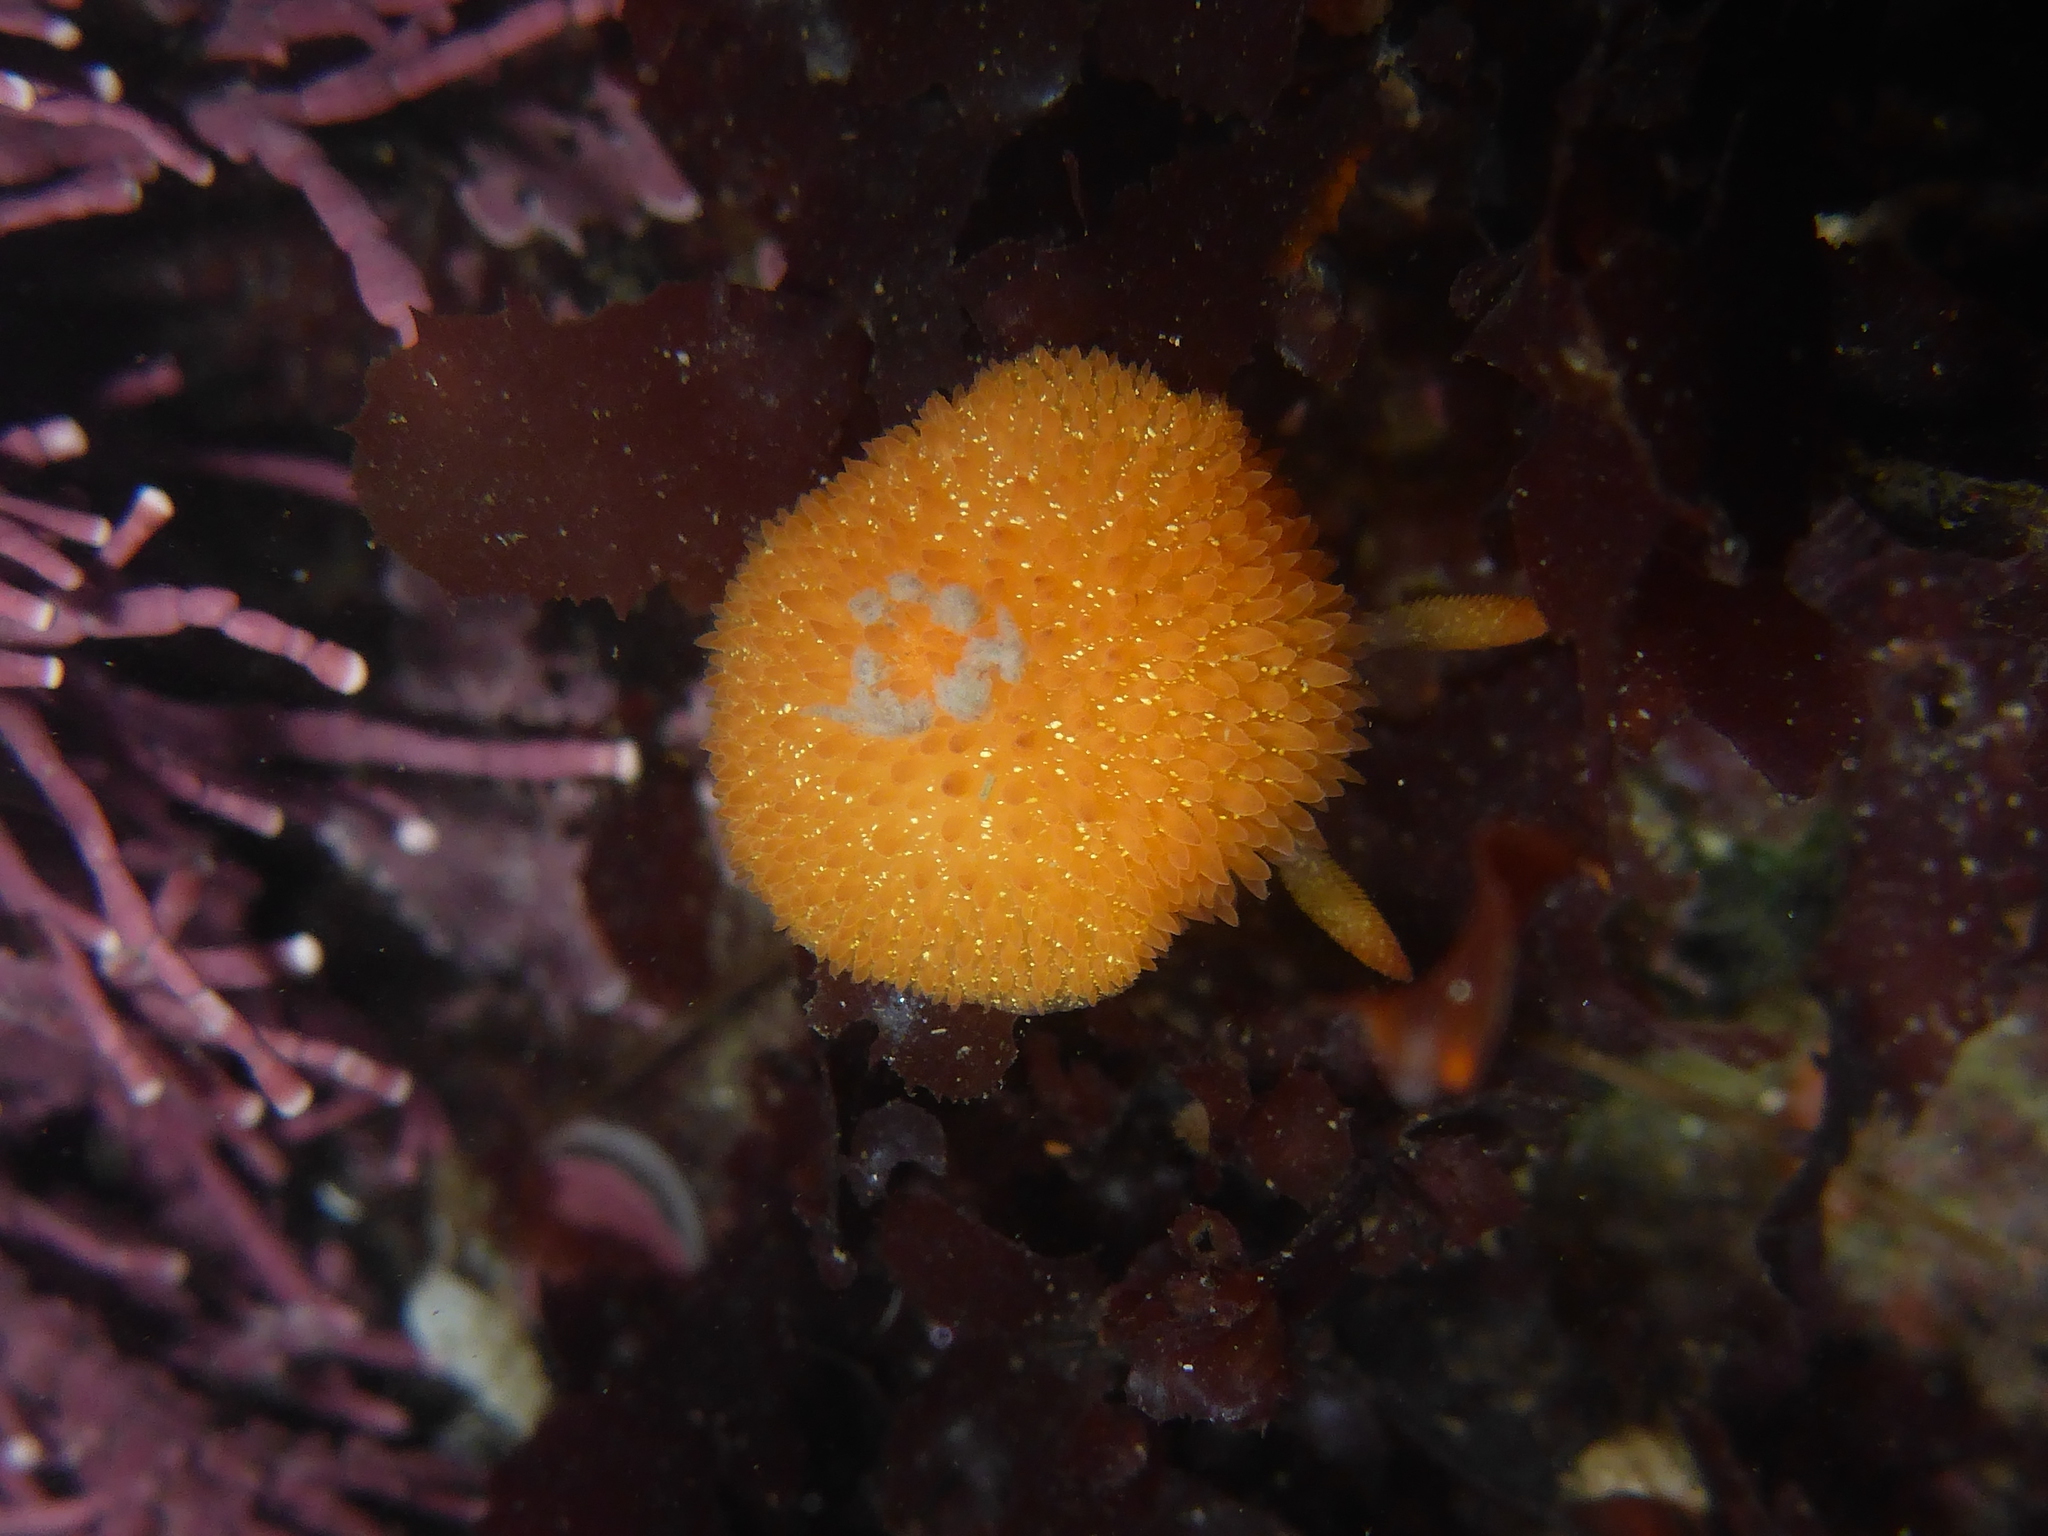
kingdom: Animalia
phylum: Mollusca
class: Gastropoda
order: Nudibranchia
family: Onchidorididae
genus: Acanthodoris
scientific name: Acanthodoris lutea
